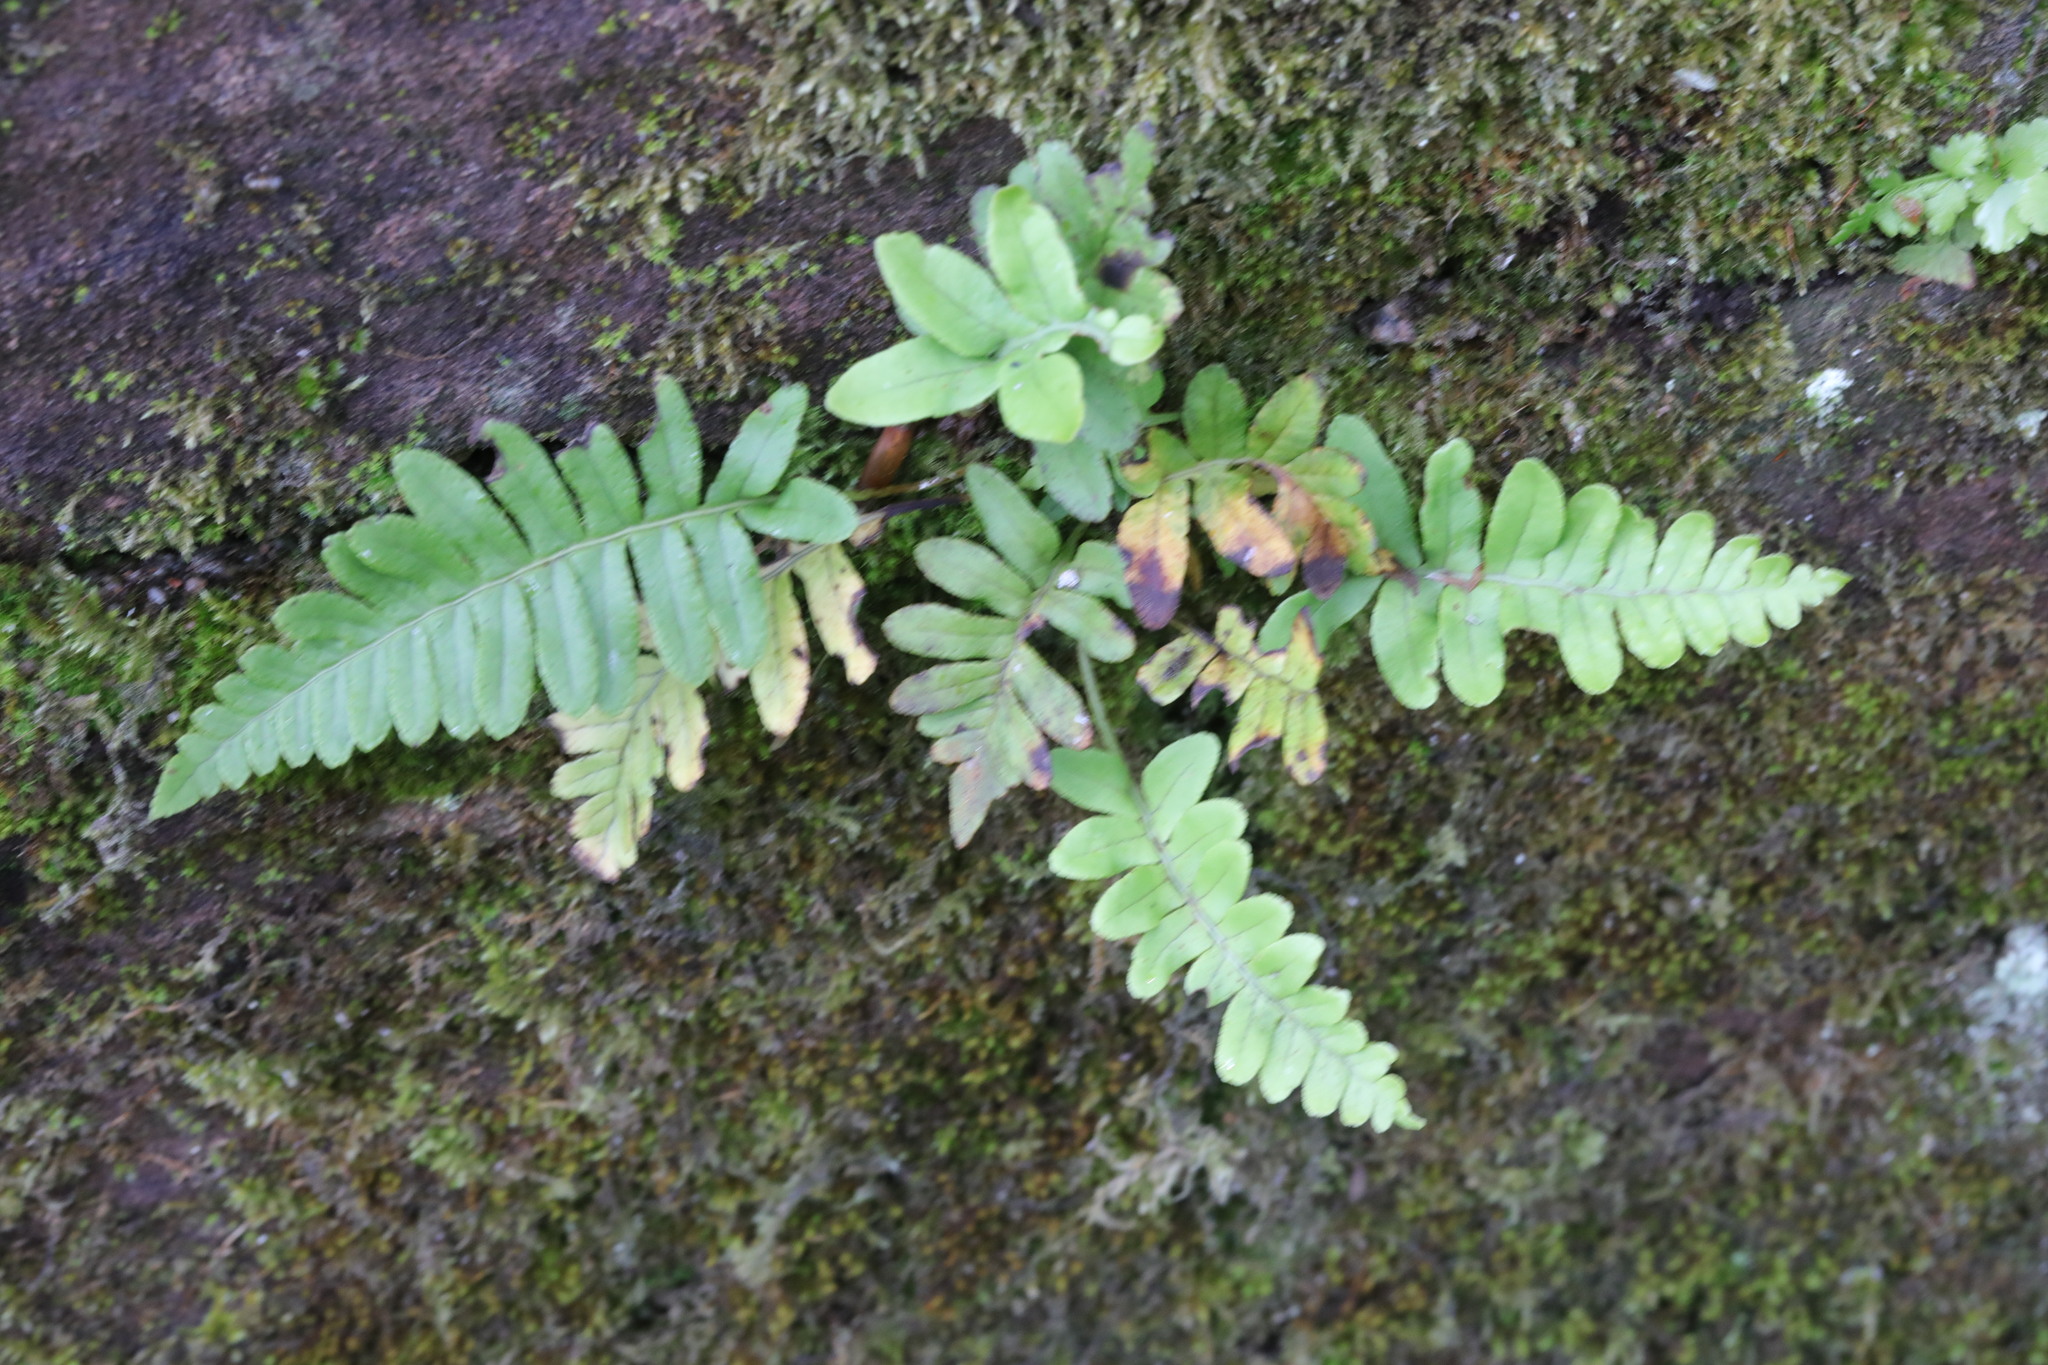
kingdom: Plantae
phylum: Tracheophyta
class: Polypodiopsida
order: Polypodiales
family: Polypodiaceae
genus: Polypodium
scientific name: Polypodium vulgare
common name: Common polypody
